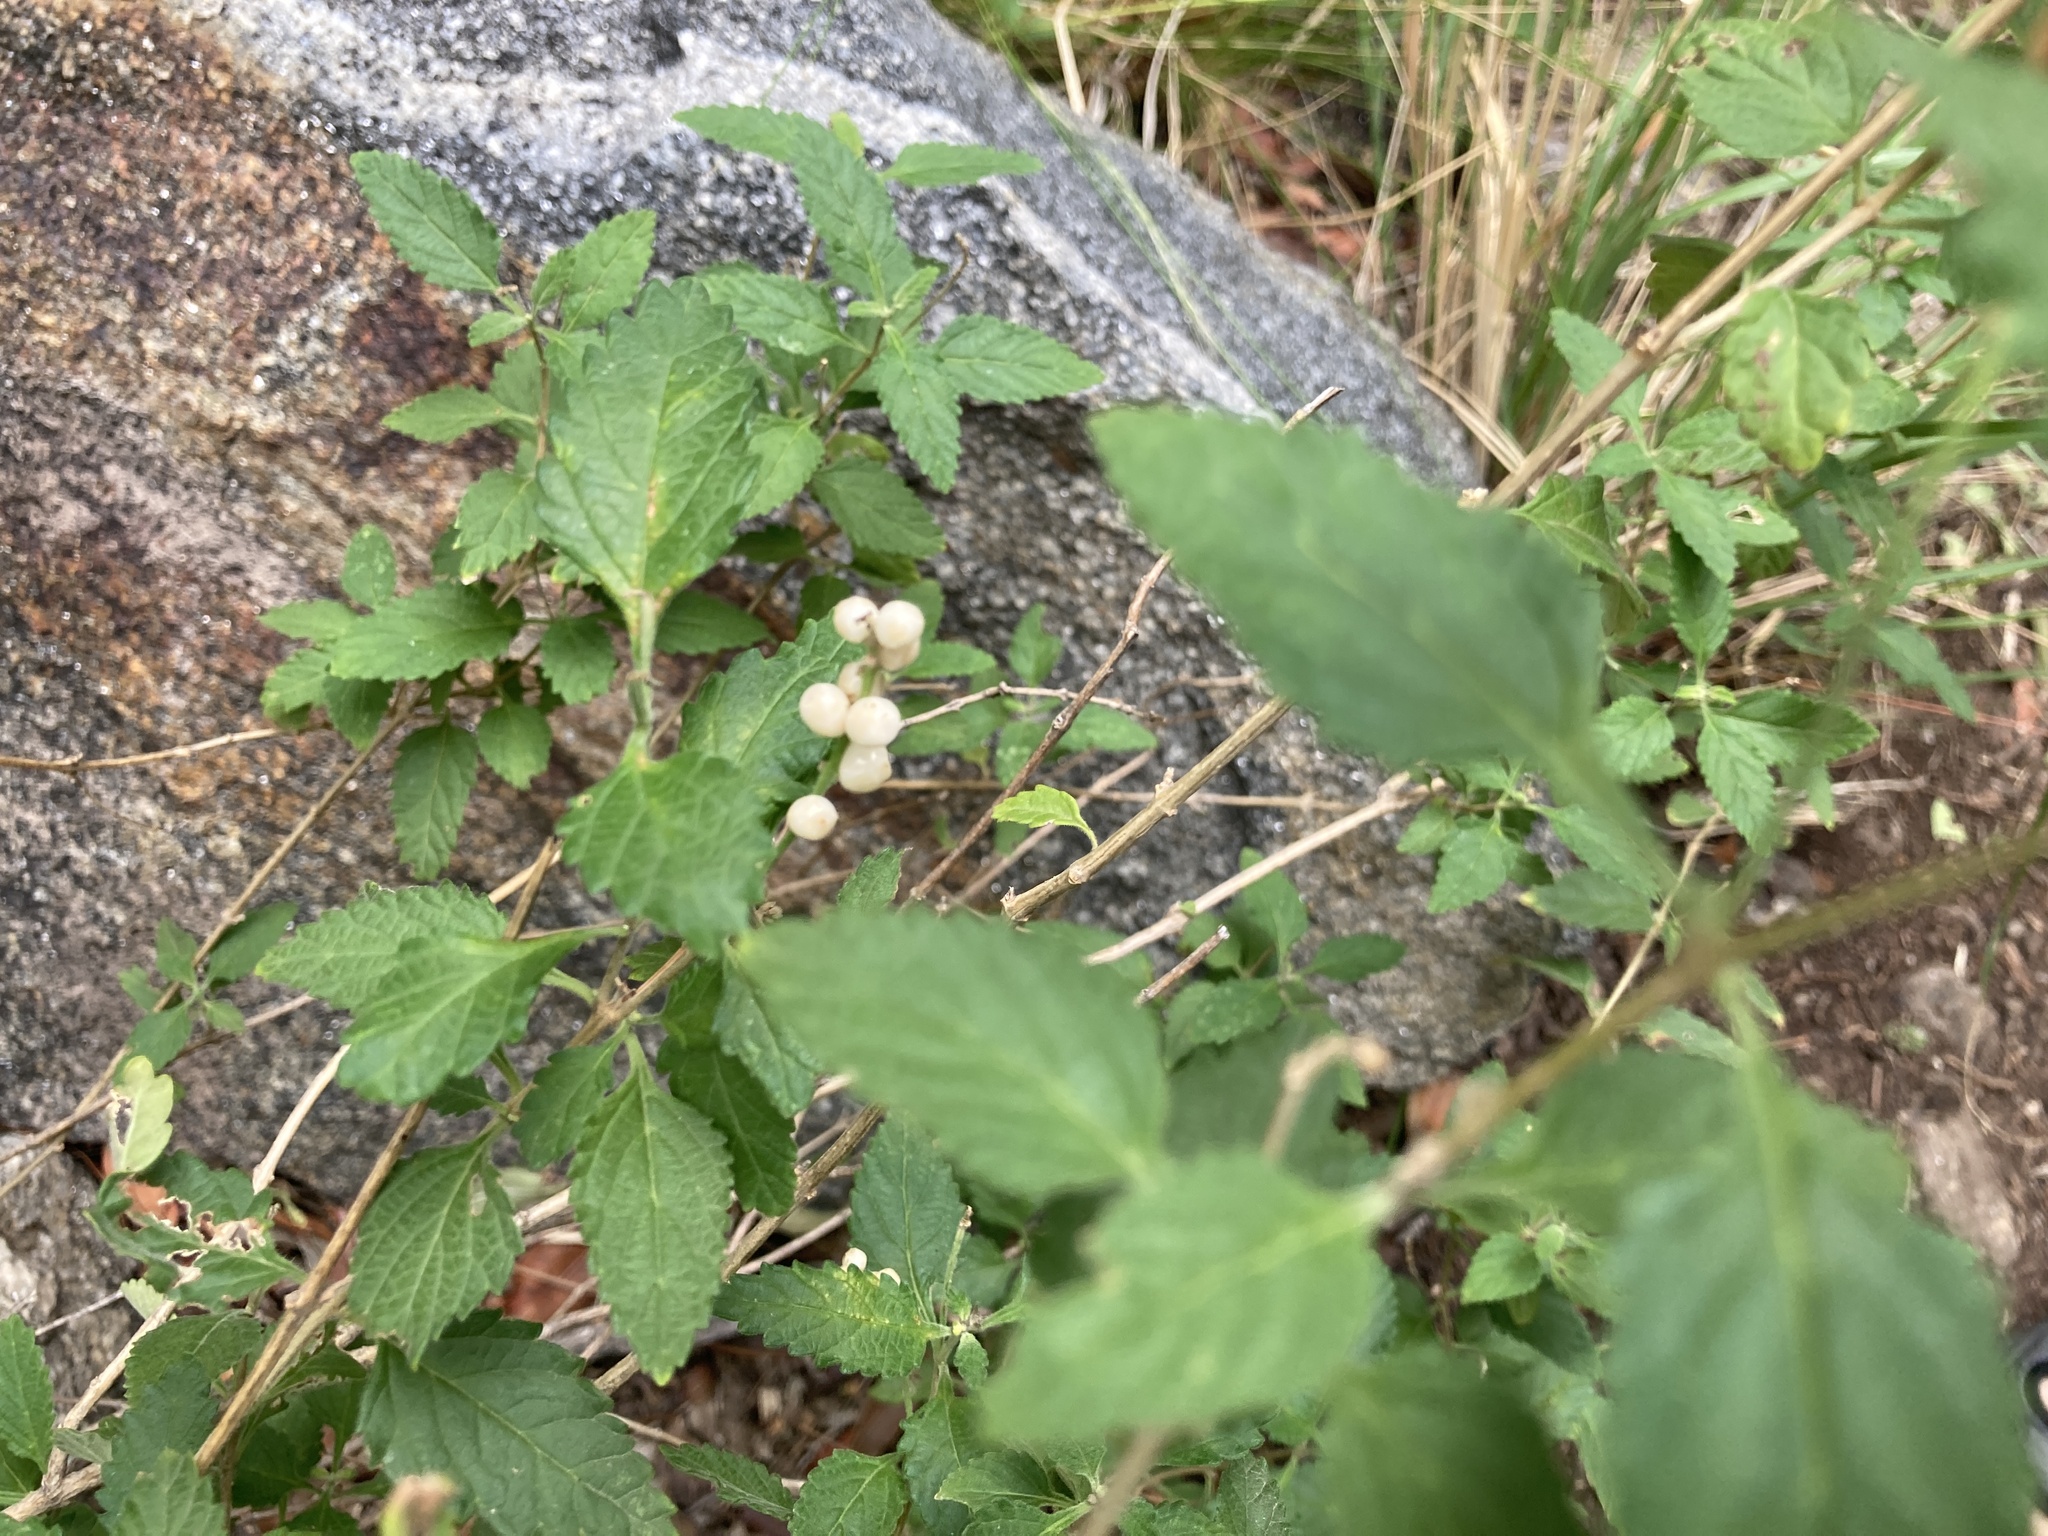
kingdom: Plantae
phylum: Tracheophyta
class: Magnoliopsida
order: Lamiales
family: Verbenaceae
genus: Lantana
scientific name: Lantana grisebachii
